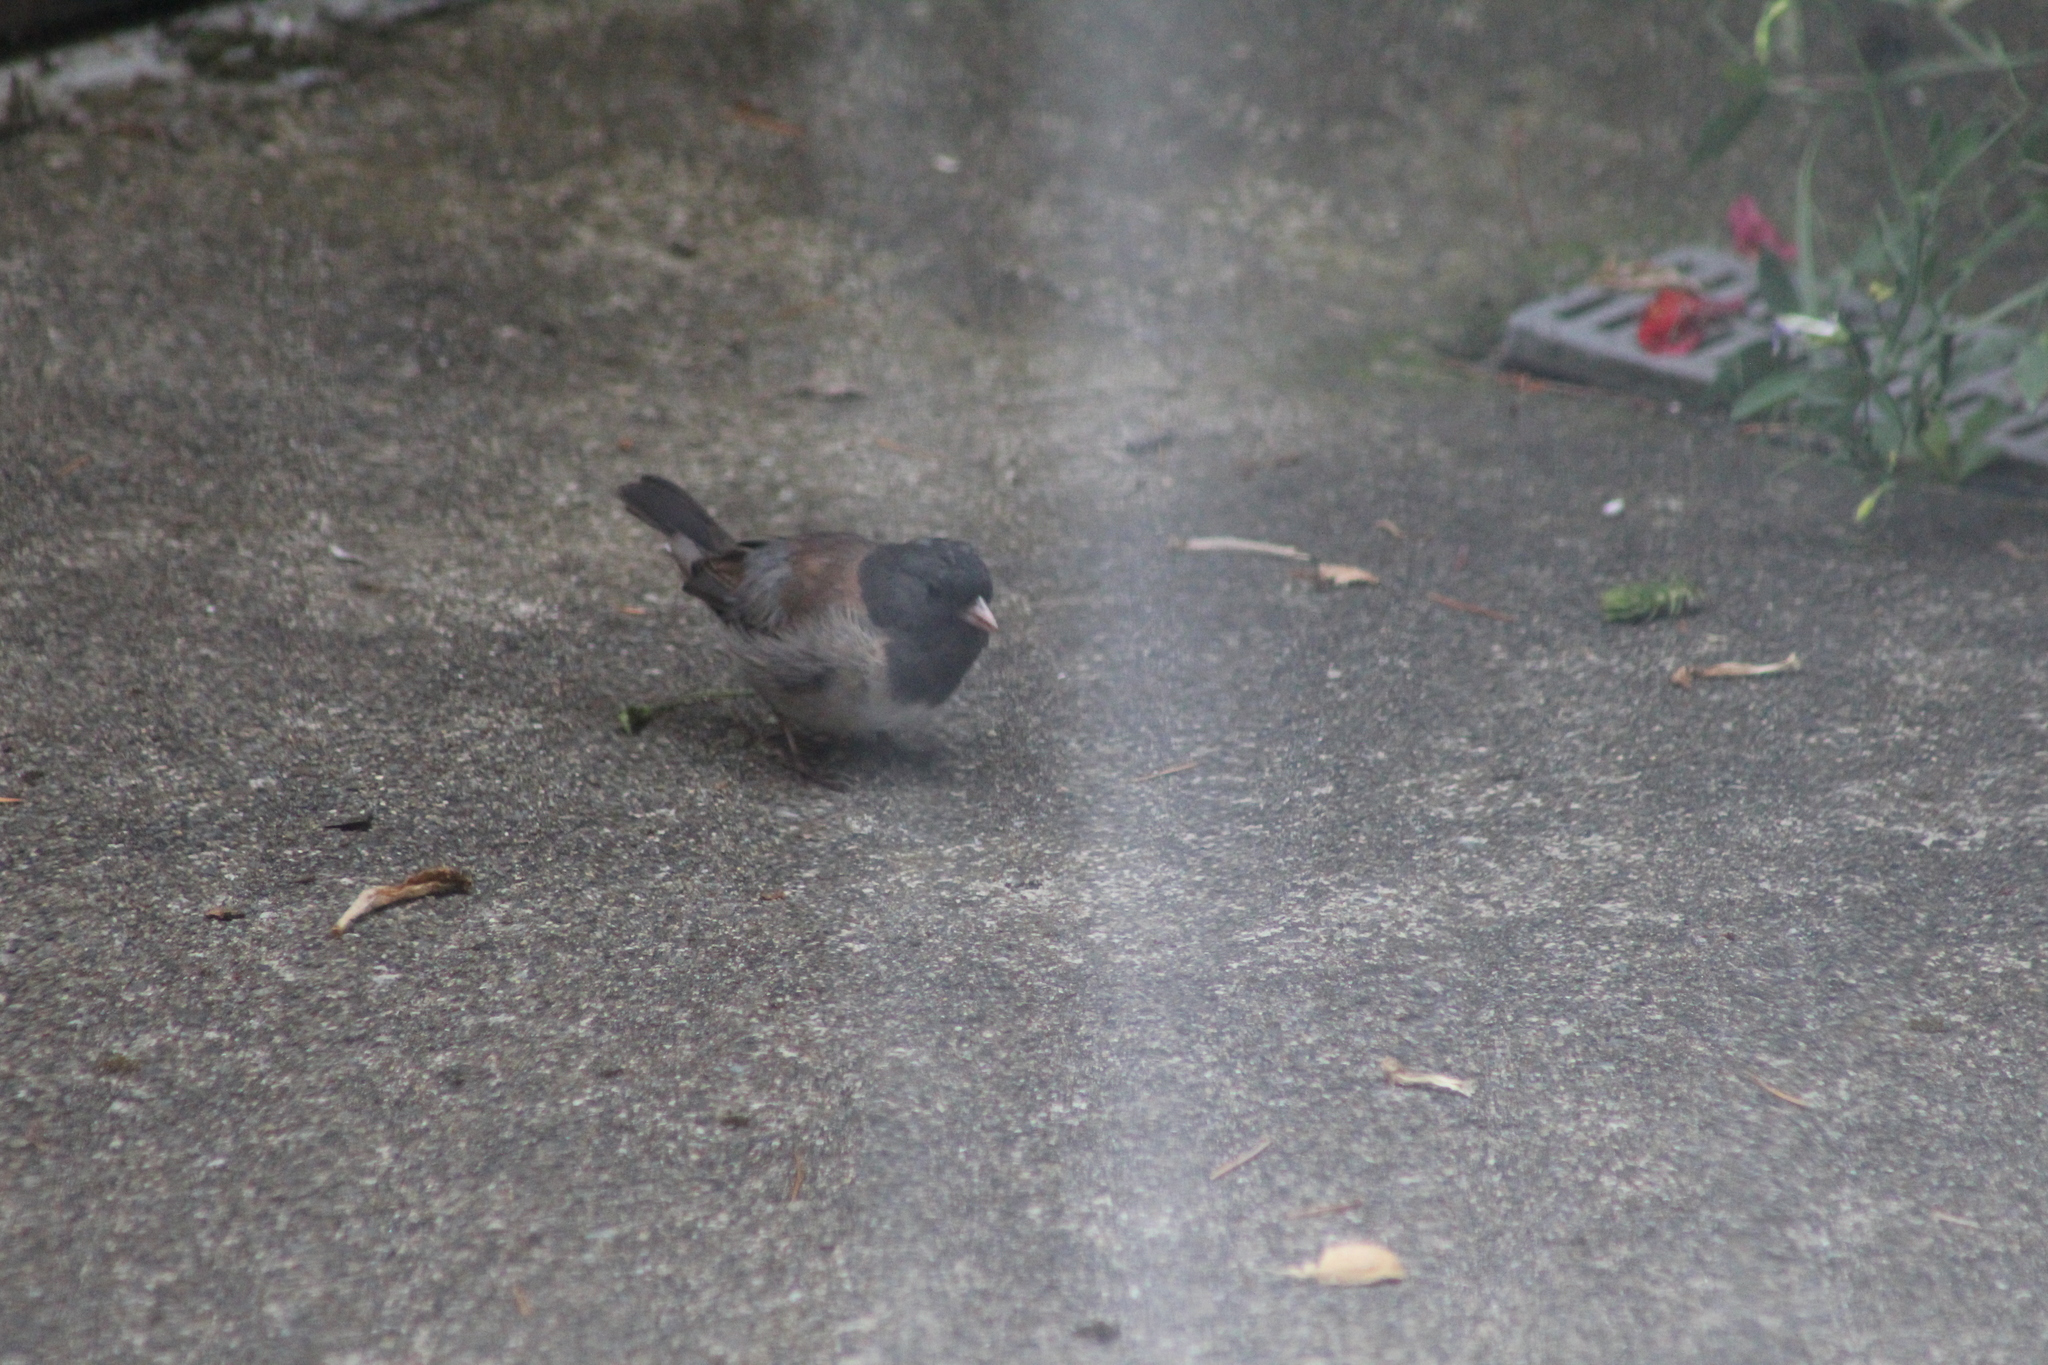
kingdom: Animalia
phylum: Chordata
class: Aves
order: Passeriformes
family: Passerellidae
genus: Junco
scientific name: Junco hyemalis
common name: Dark-eyed junco
